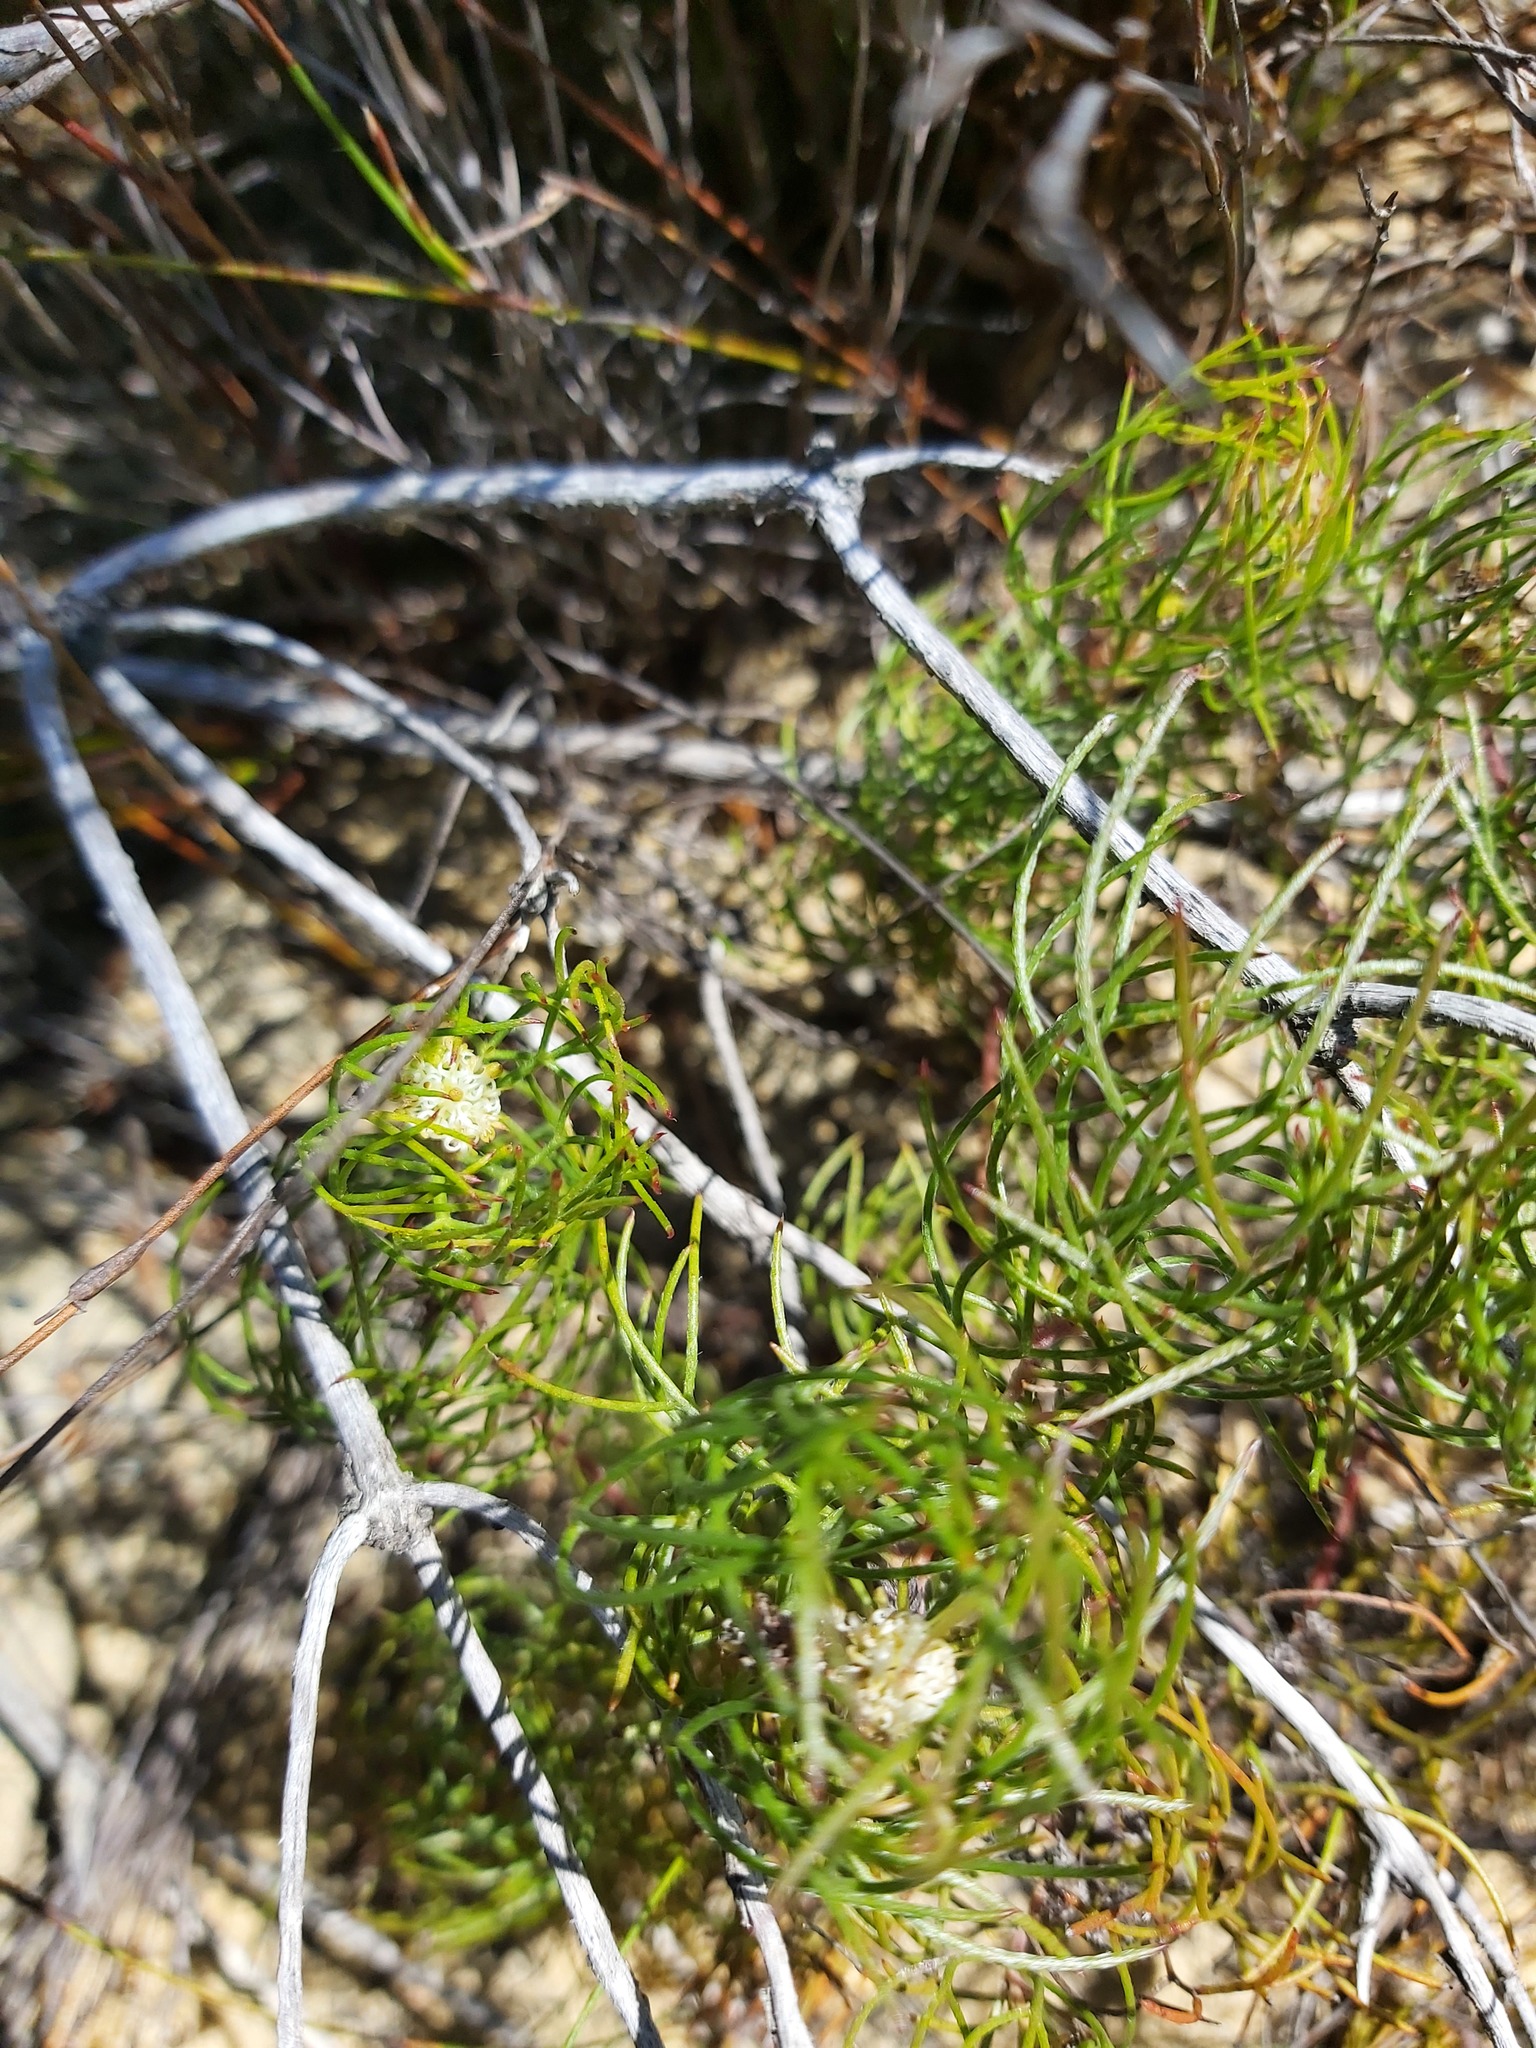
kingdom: Plantae
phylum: Tracheophyta
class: Magnoliopsida
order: Proteales
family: Proteaceae
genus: Serruria
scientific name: Serruria inconspicua
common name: Cryptic spiderhead
